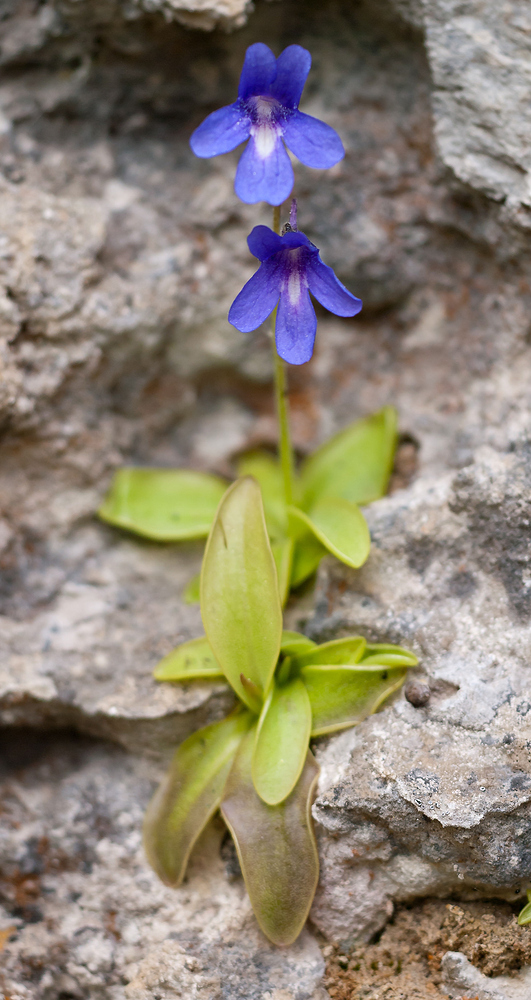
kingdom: Plantae
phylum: Tracheophyta
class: Magnoliopsida
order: Lamiales
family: Lentibulariaceae
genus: Pinguicula
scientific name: Pinguicula caussensis
